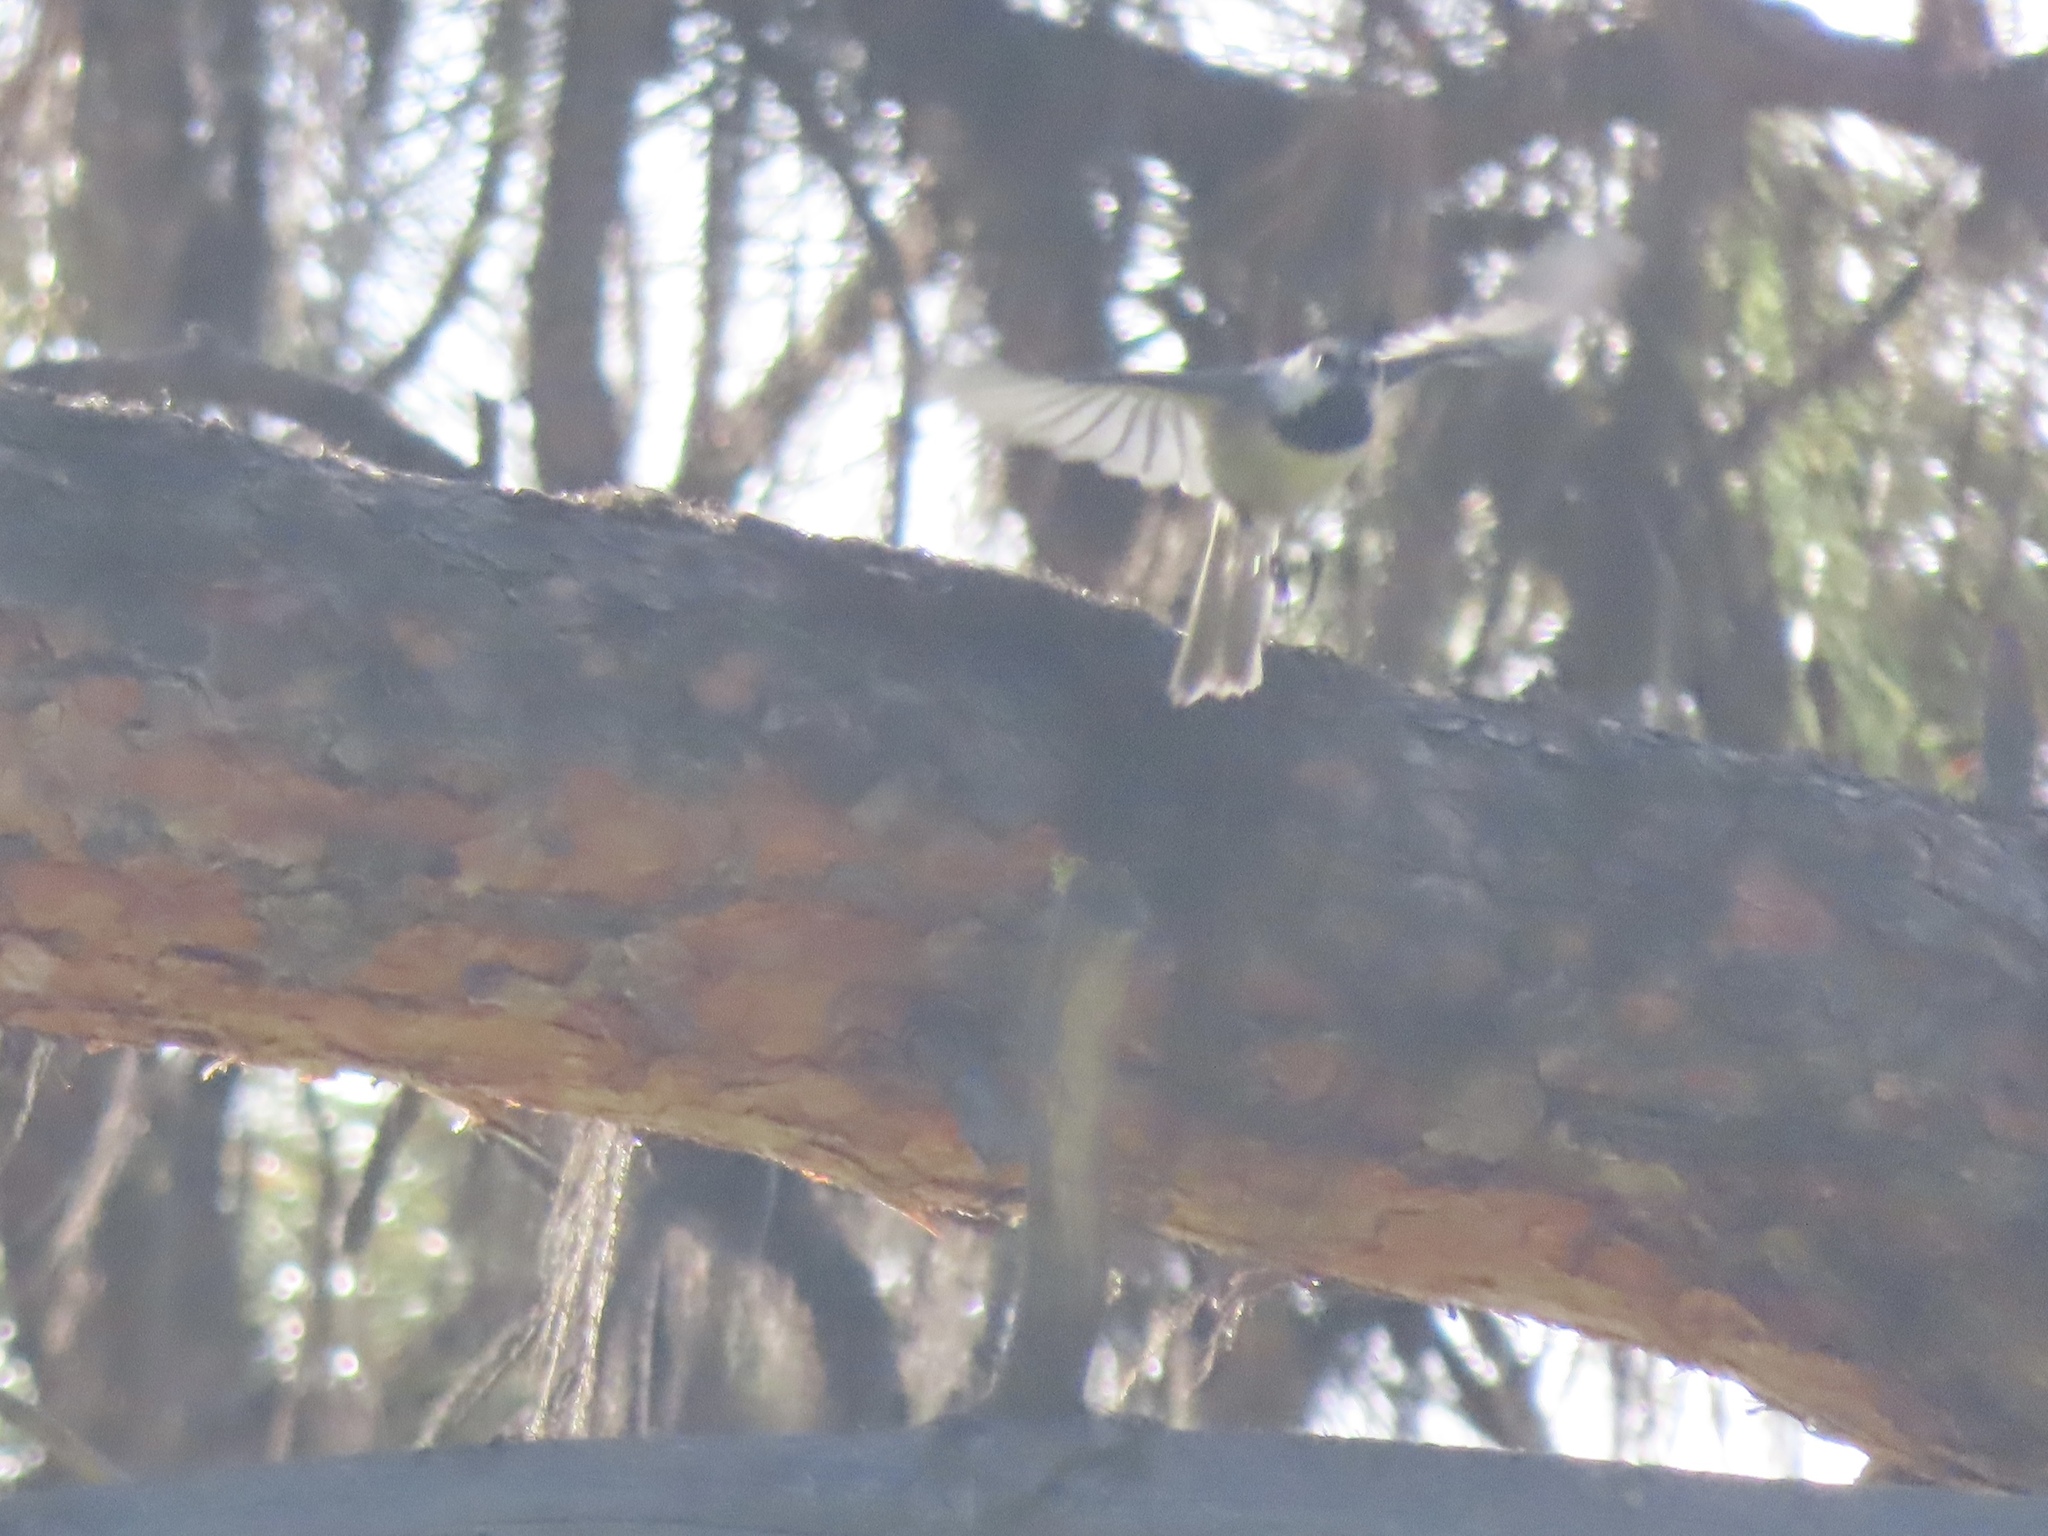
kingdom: Animalia
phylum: Chordata
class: Aves
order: Passeriformes
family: Paridae
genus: Poecile
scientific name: Poecile gambeli
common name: Mountain chickadee
